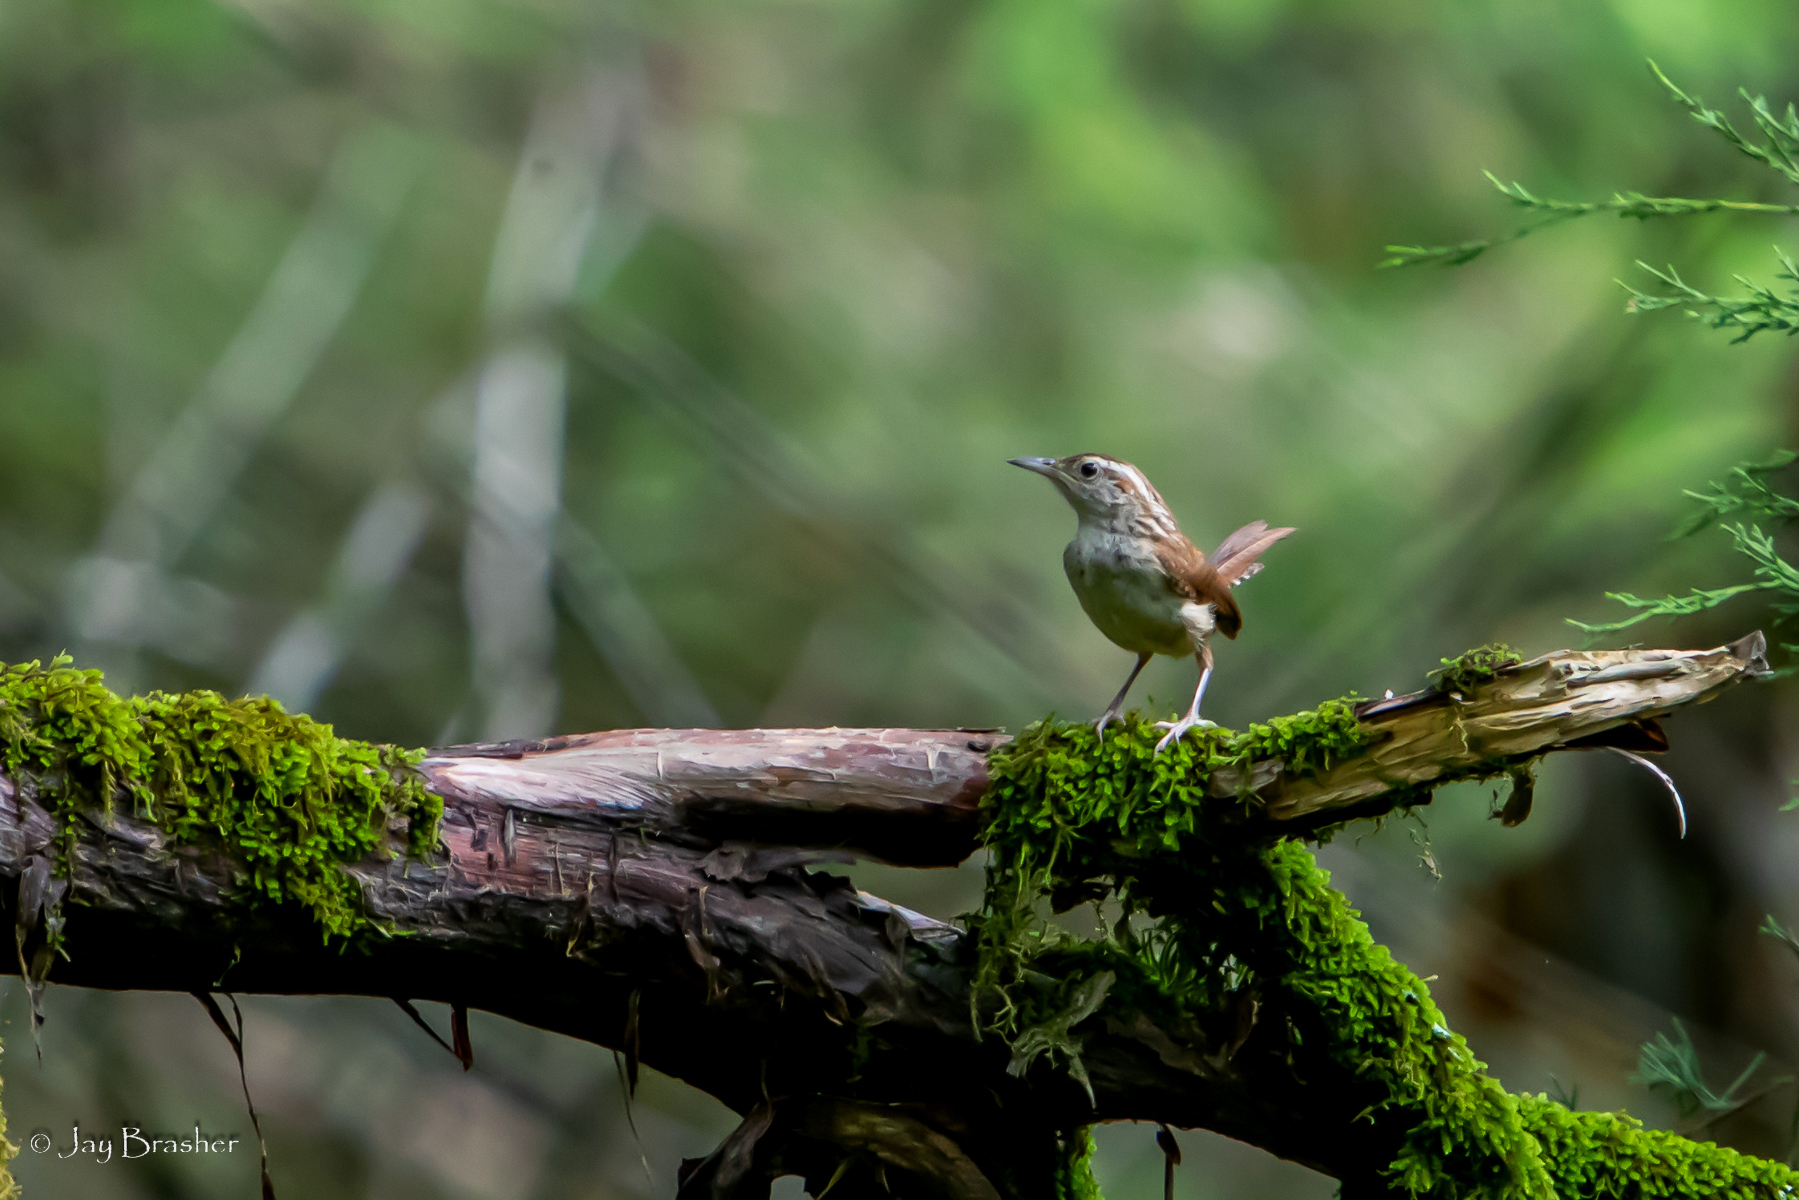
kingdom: Animalia
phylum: Chordata
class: Aves
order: Passeriformes
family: Troglodytidae
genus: Thryothorus
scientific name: Thryothorus ludovicianus
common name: Carolina wren
